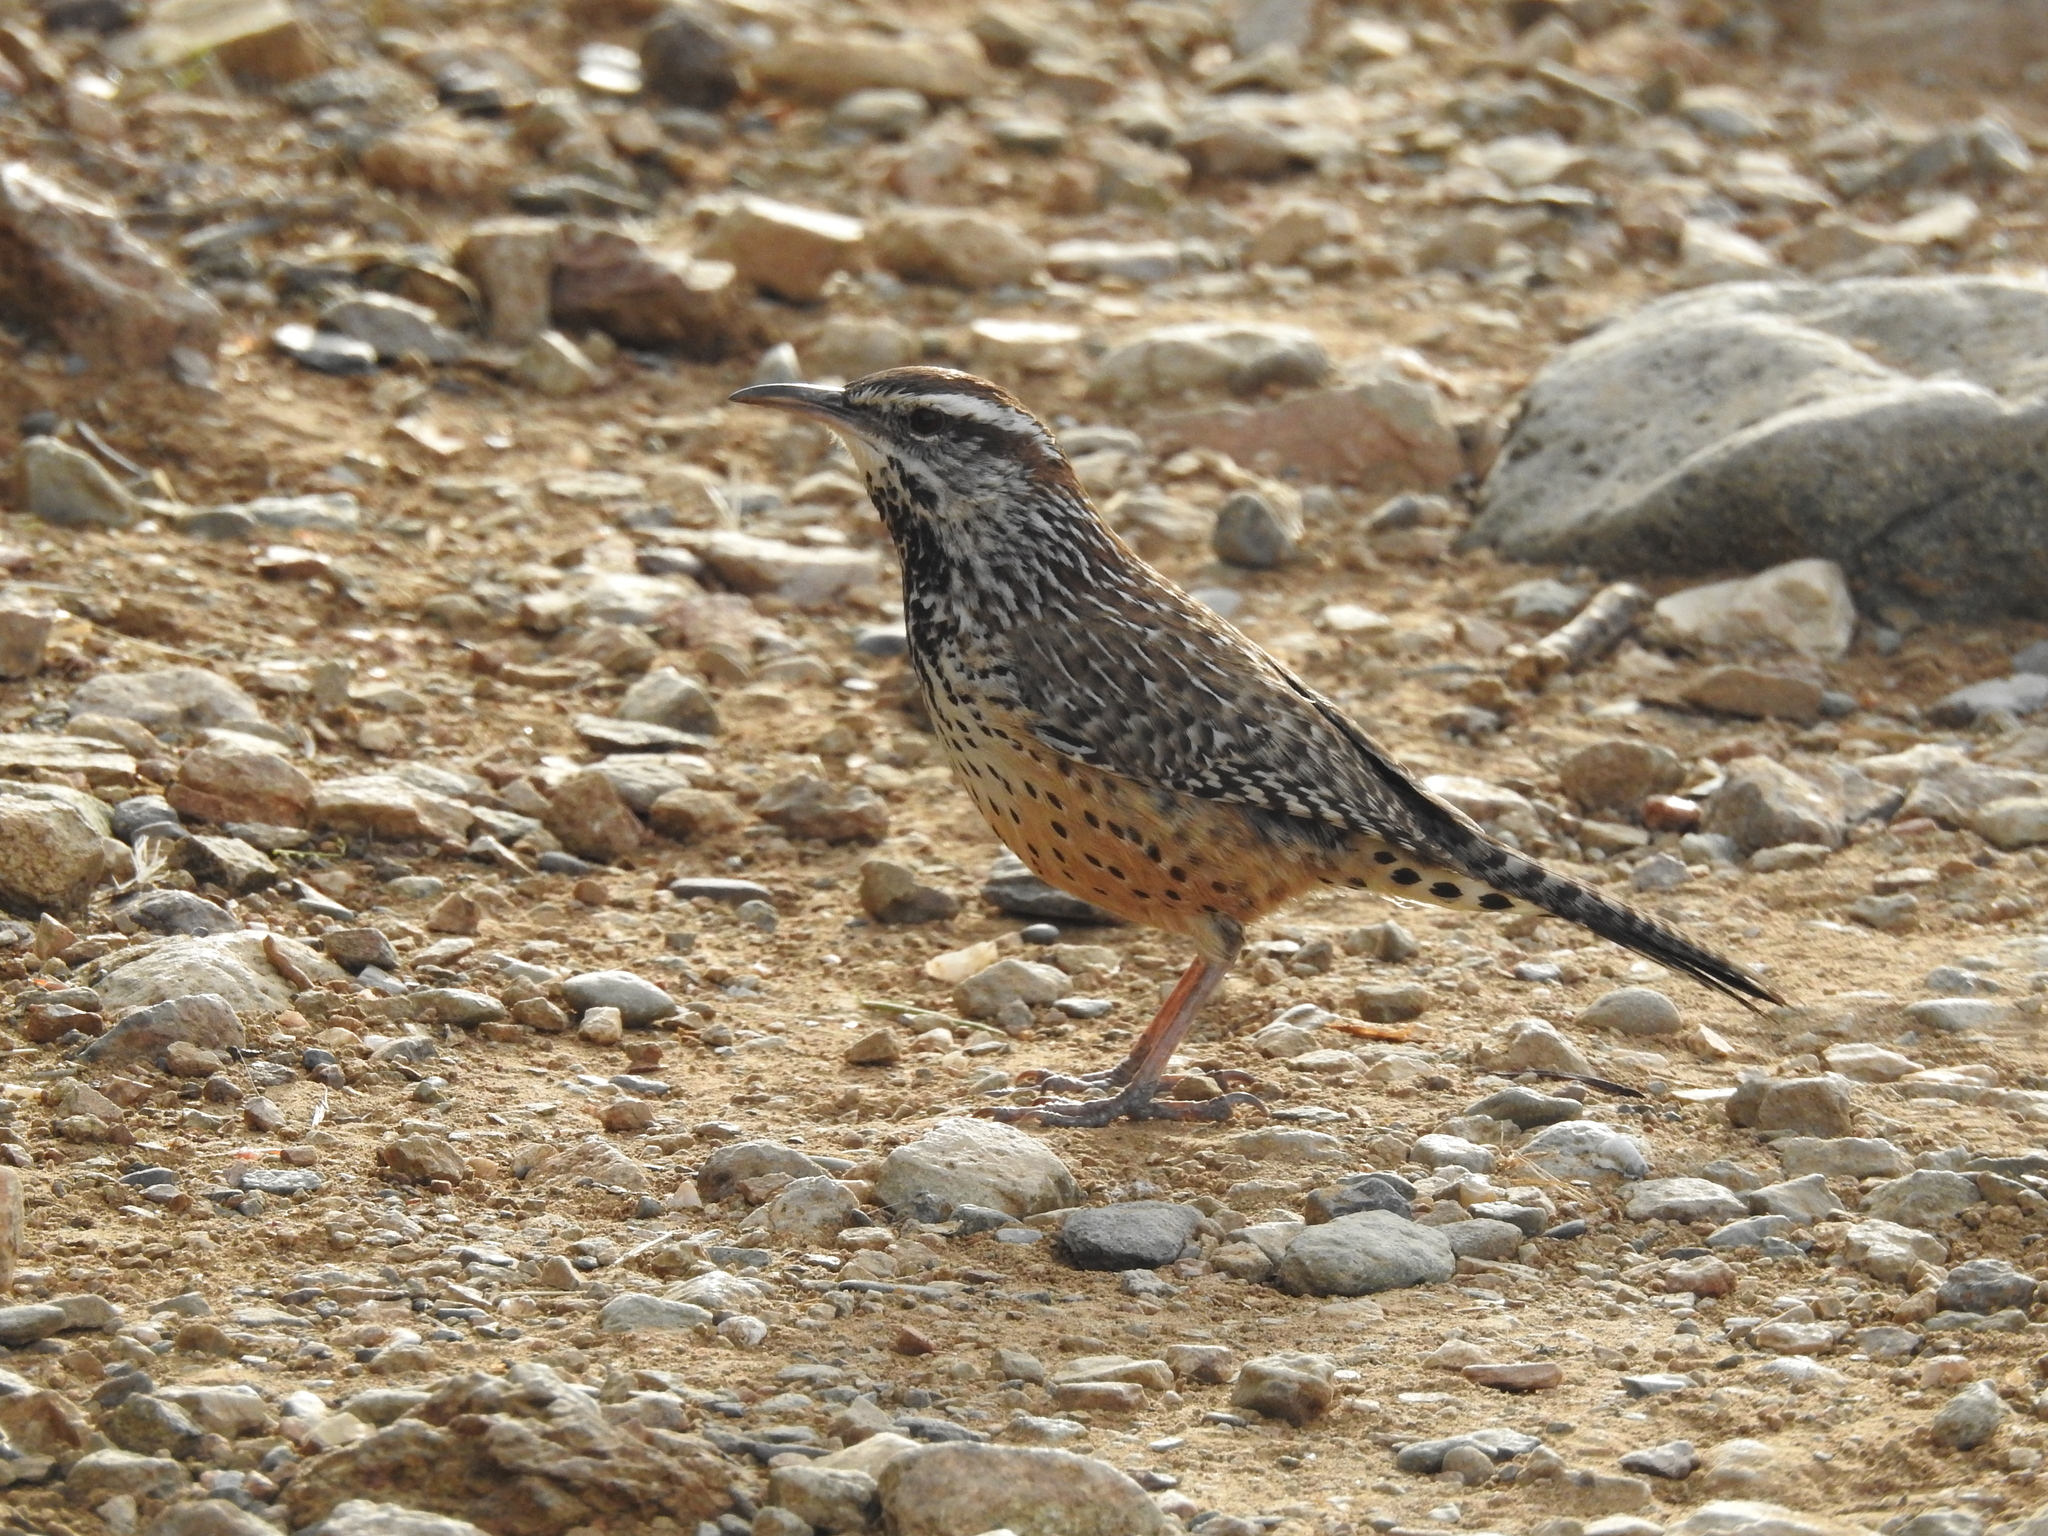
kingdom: Animalia
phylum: Chordata
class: Aves
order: Passeriformes
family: Troglodytidae
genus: Campylorhynchus
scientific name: Campylorhynchus brunneicapillus
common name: Cactus wren
